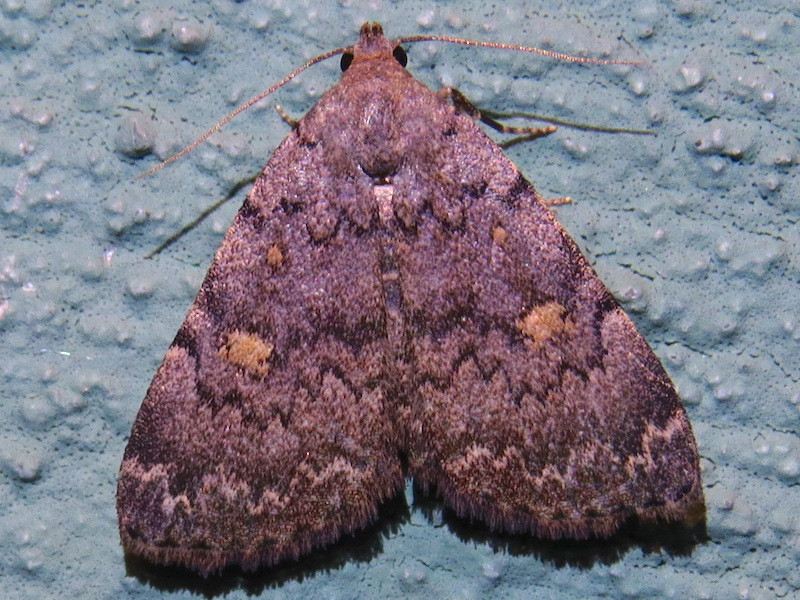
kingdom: Animalia
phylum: Arthropoda
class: Insecta
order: Lepidoptera
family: Erebidae
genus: Idia
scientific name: Idia aemula
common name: Common idia moth
